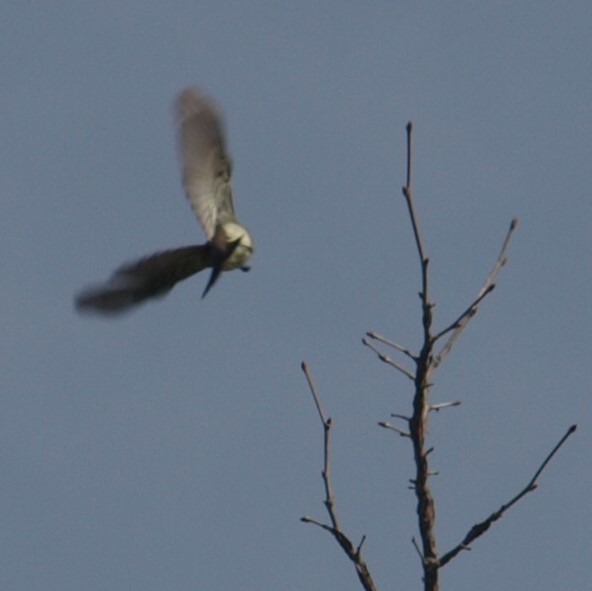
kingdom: Animalia
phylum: Chordata
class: Aves
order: Passeriformes
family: Tyrannidae
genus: Sayornis
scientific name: Sayornis phoebe
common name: Eastern phoebe
